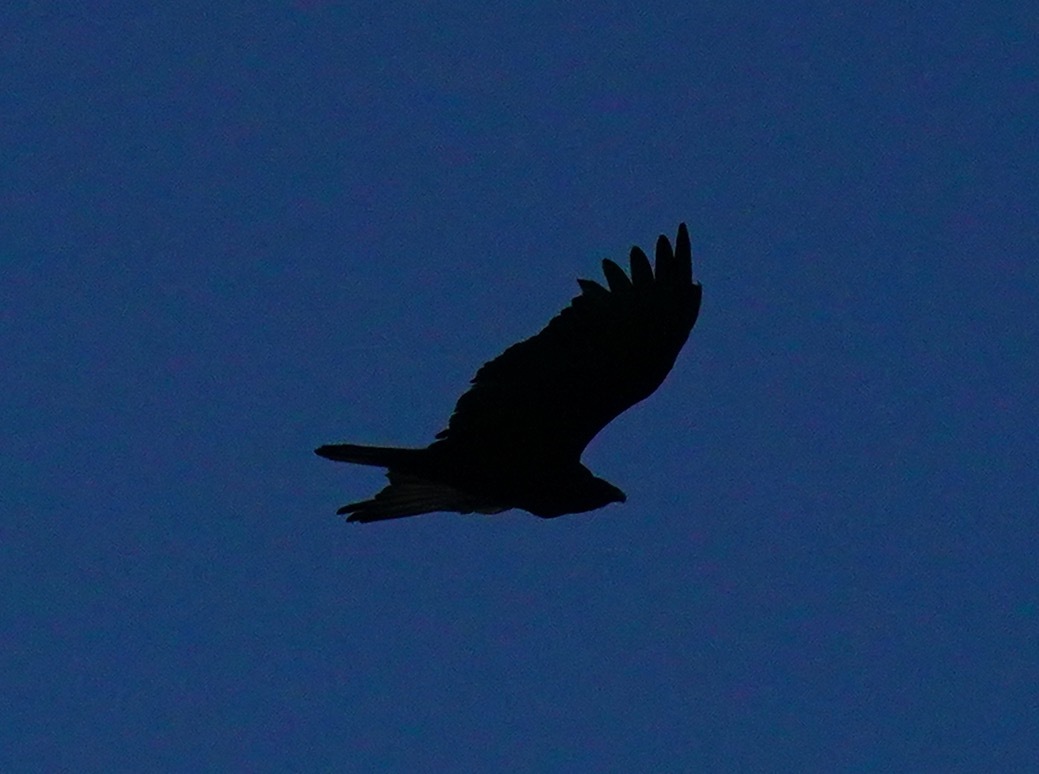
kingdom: Animalia
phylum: Chordata
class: Aves
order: Accipitriformes
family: Cathartidae
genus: Cathartes
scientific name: Cathartes aura
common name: Turkey vulture
